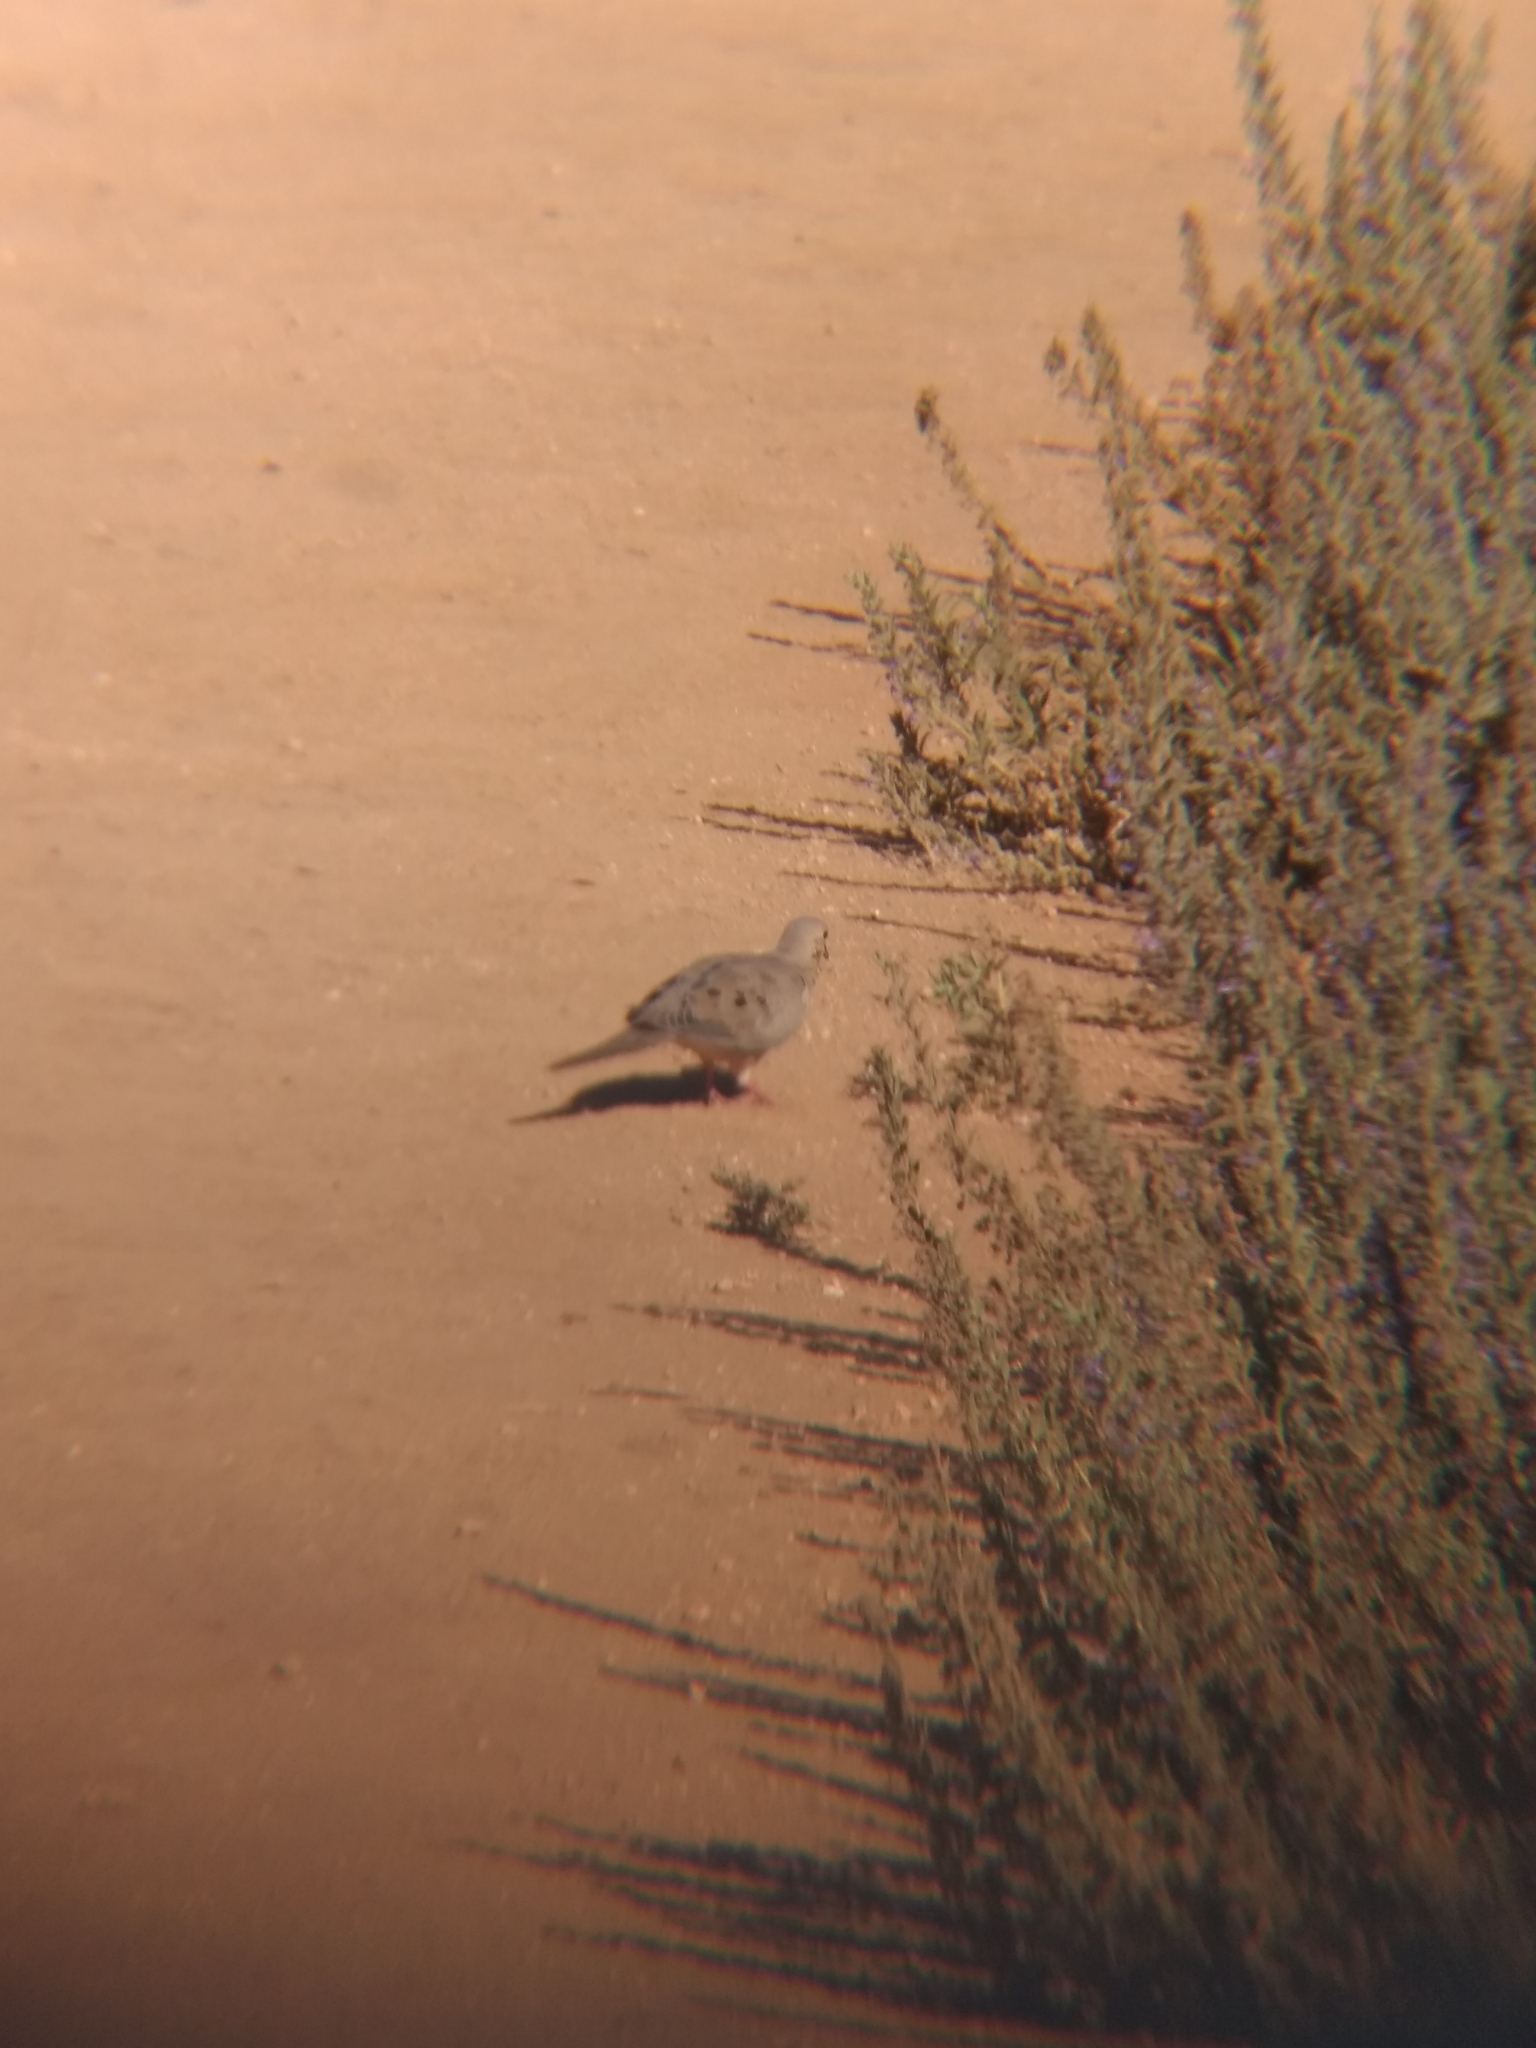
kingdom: Animalia
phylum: Chordata
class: Aves
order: Columbiformes
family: Columbidae
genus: Zenaida
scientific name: Zenaida macroura
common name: Mourning dove
